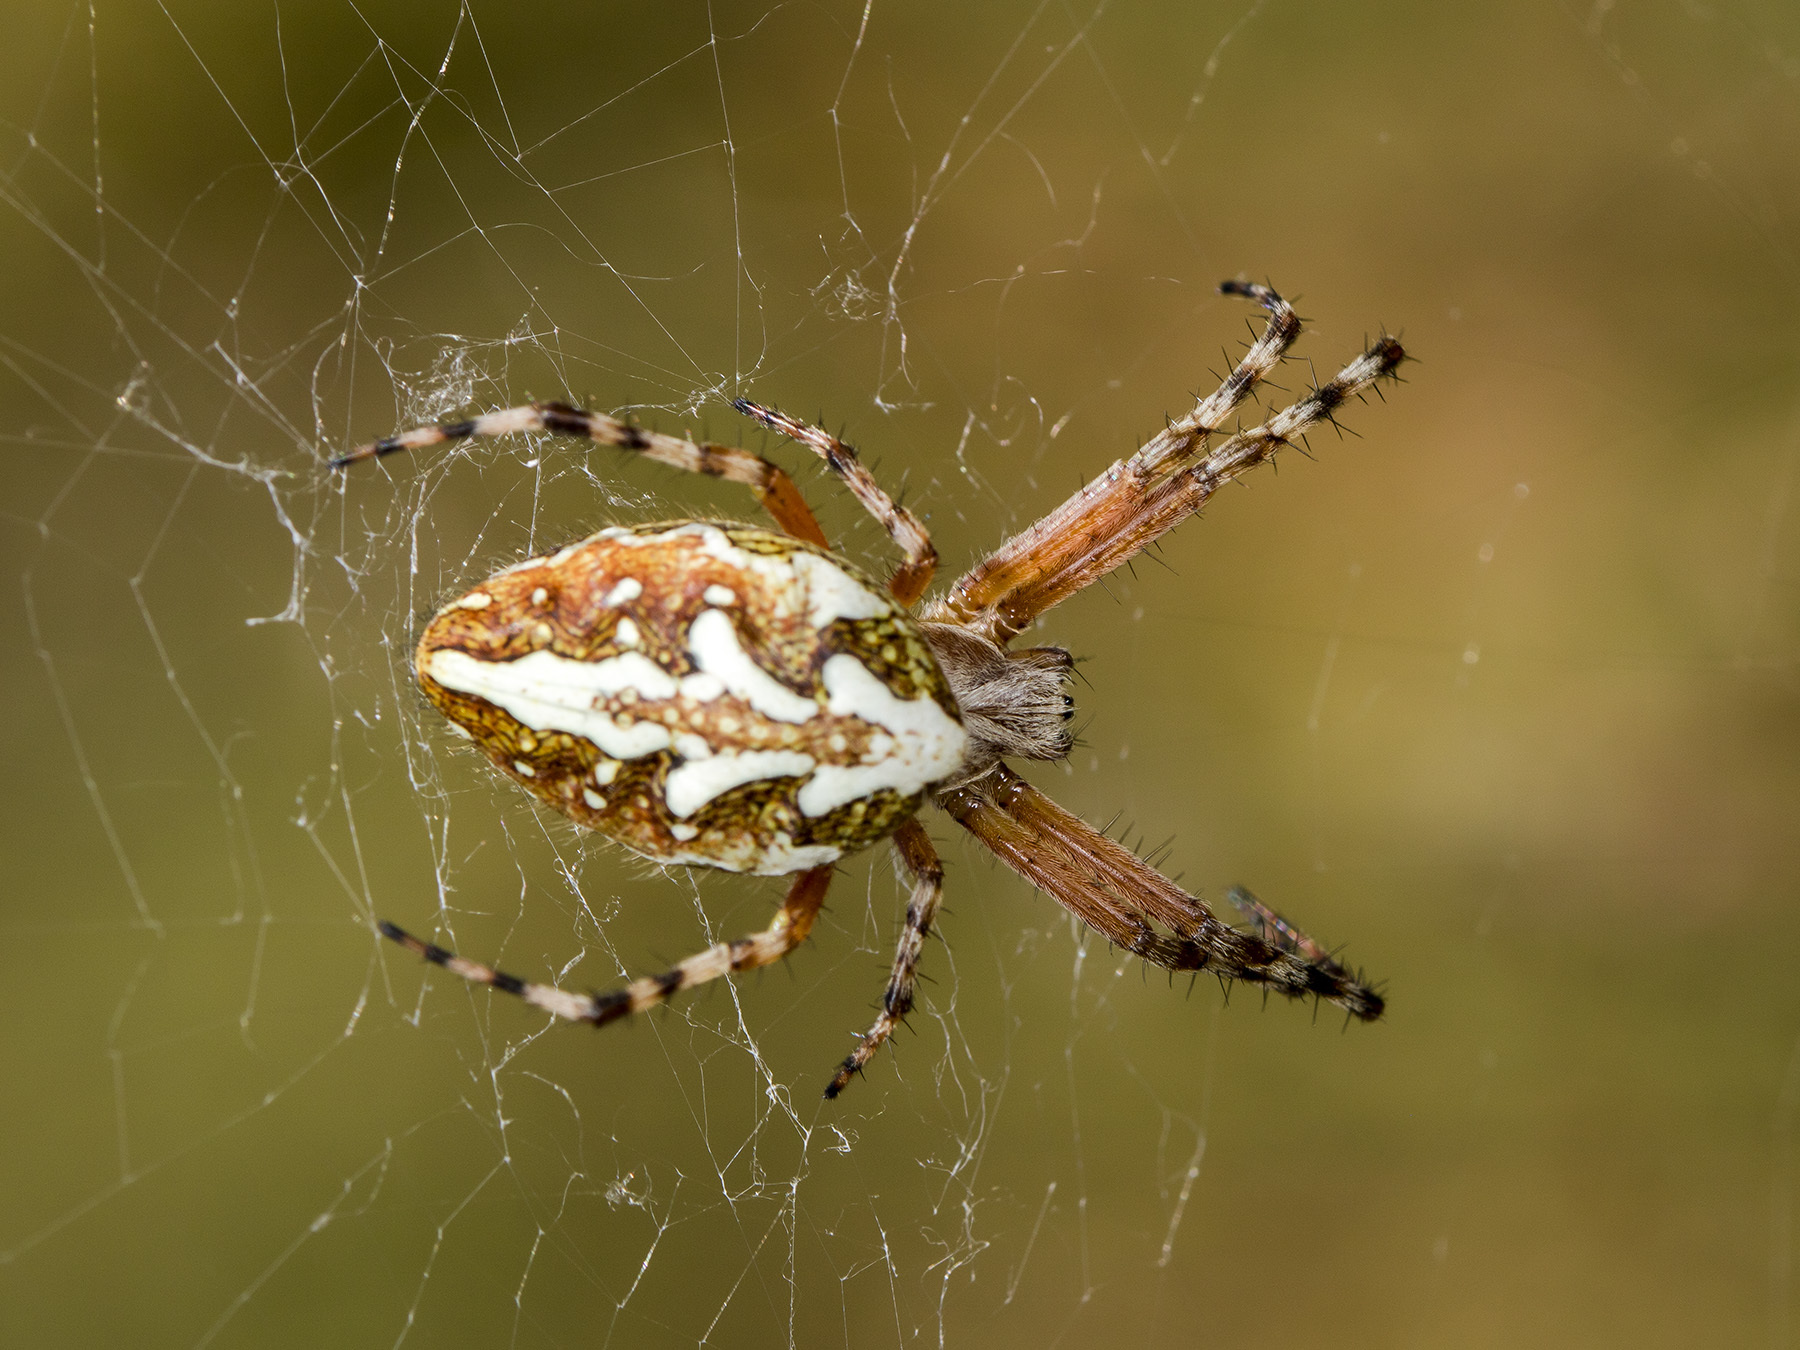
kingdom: Animalia
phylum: Arthropoda
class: Arachnida
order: Araneae
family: Araneidae
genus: Aculepeira
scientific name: Aculepeira packardi
